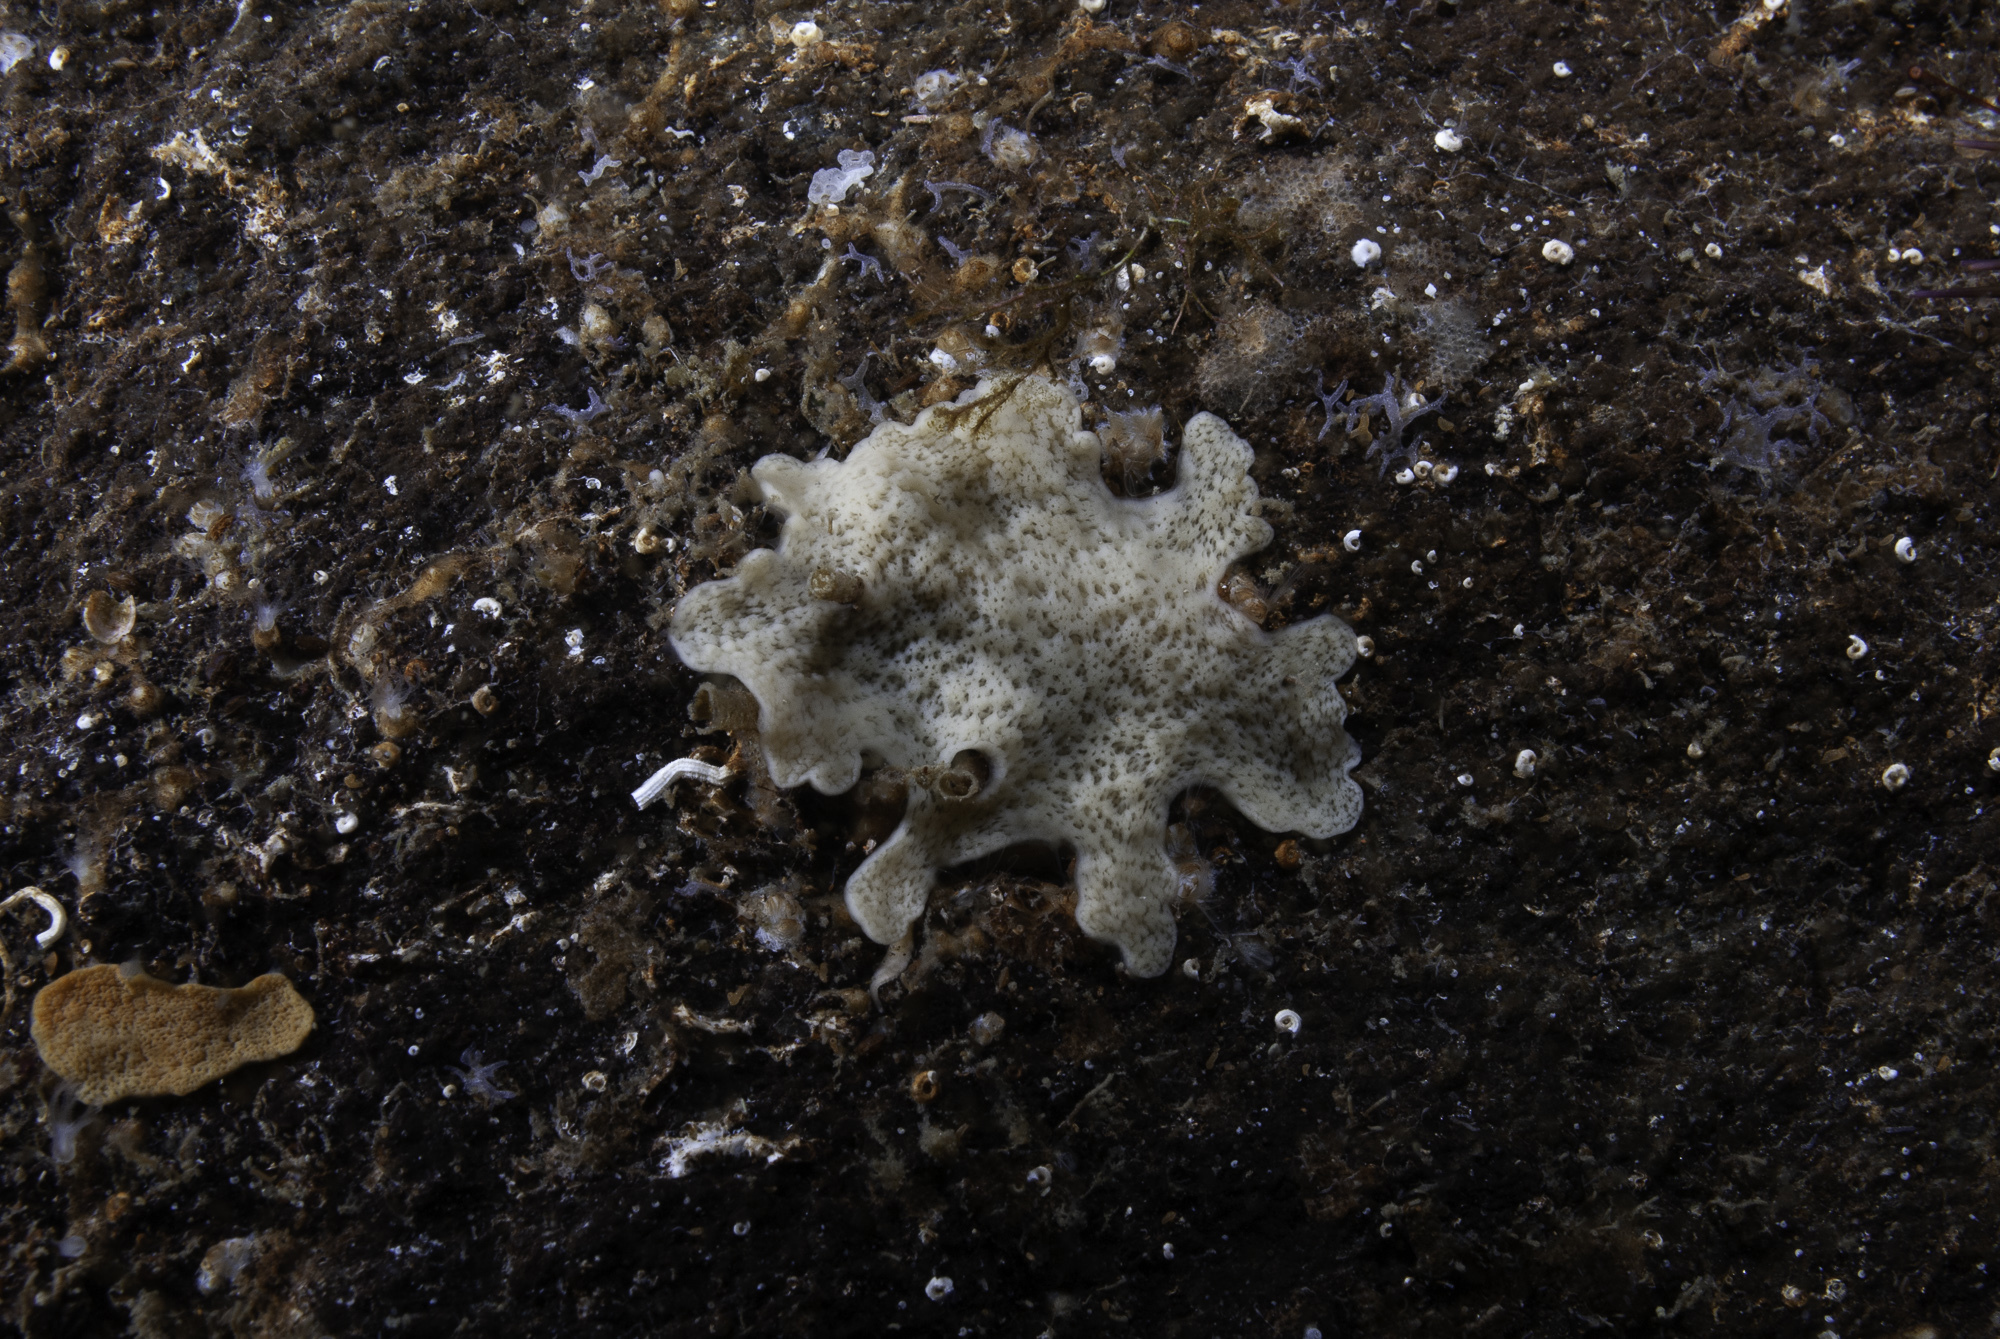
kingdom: Animalia
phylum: Porifera
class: Homoscleromorpha
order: Homosclerophorida
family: Plakinidae
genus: Plakina
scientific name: Plakina monolopha
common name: Simple-rayed membrane sponge
